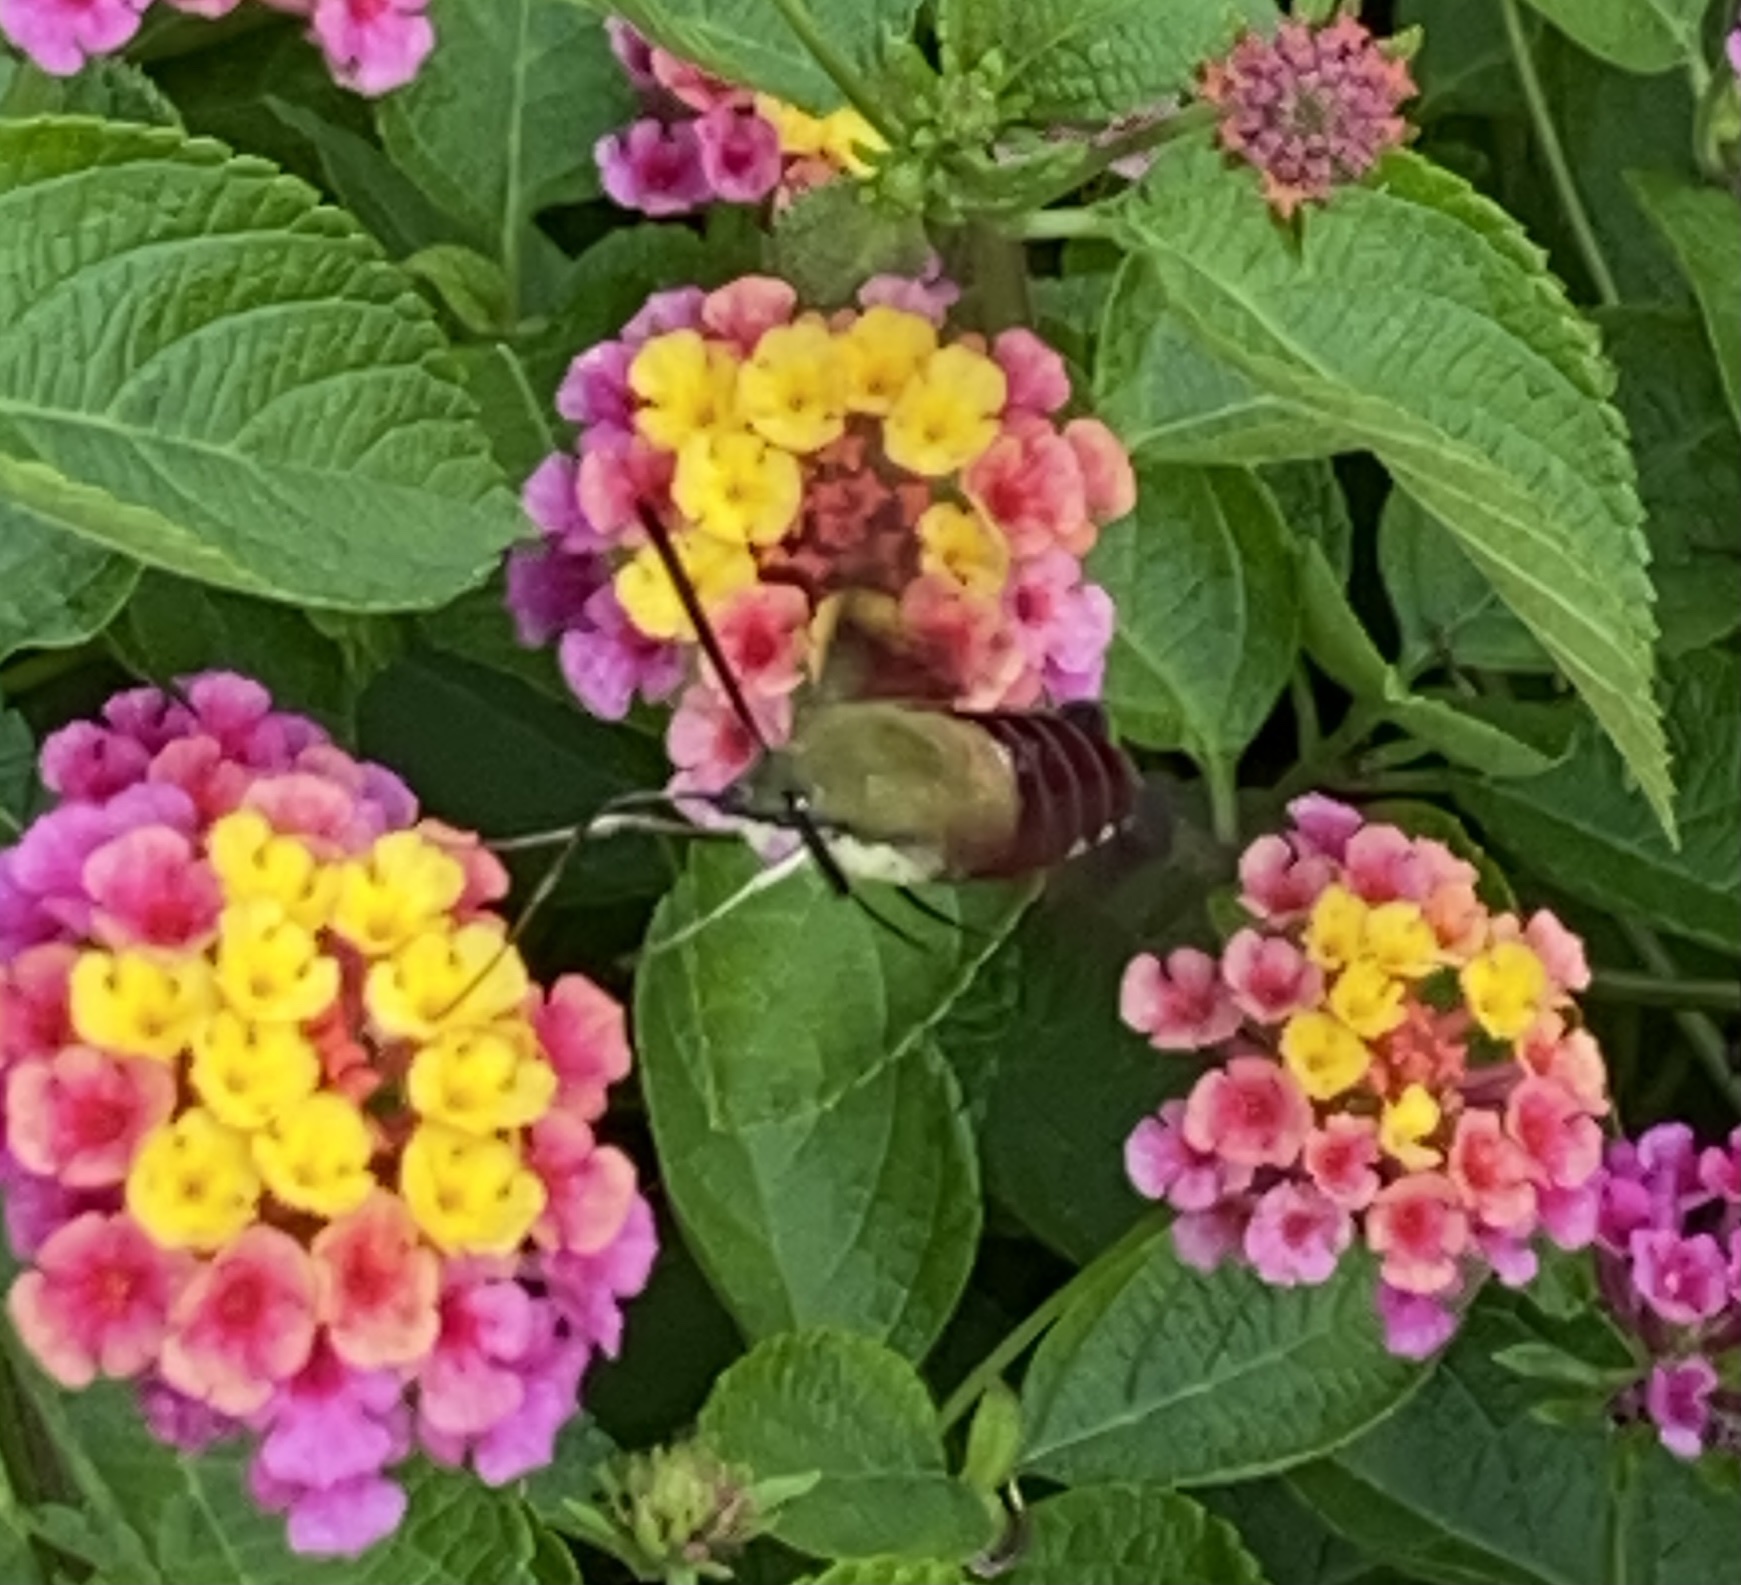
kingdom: Animalia
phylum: Arthropoda
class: Insecta
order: Lepidoptera
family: Sphingidae
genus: Hemaris
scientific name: Hemaris thysbe
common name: Common clear-wing
